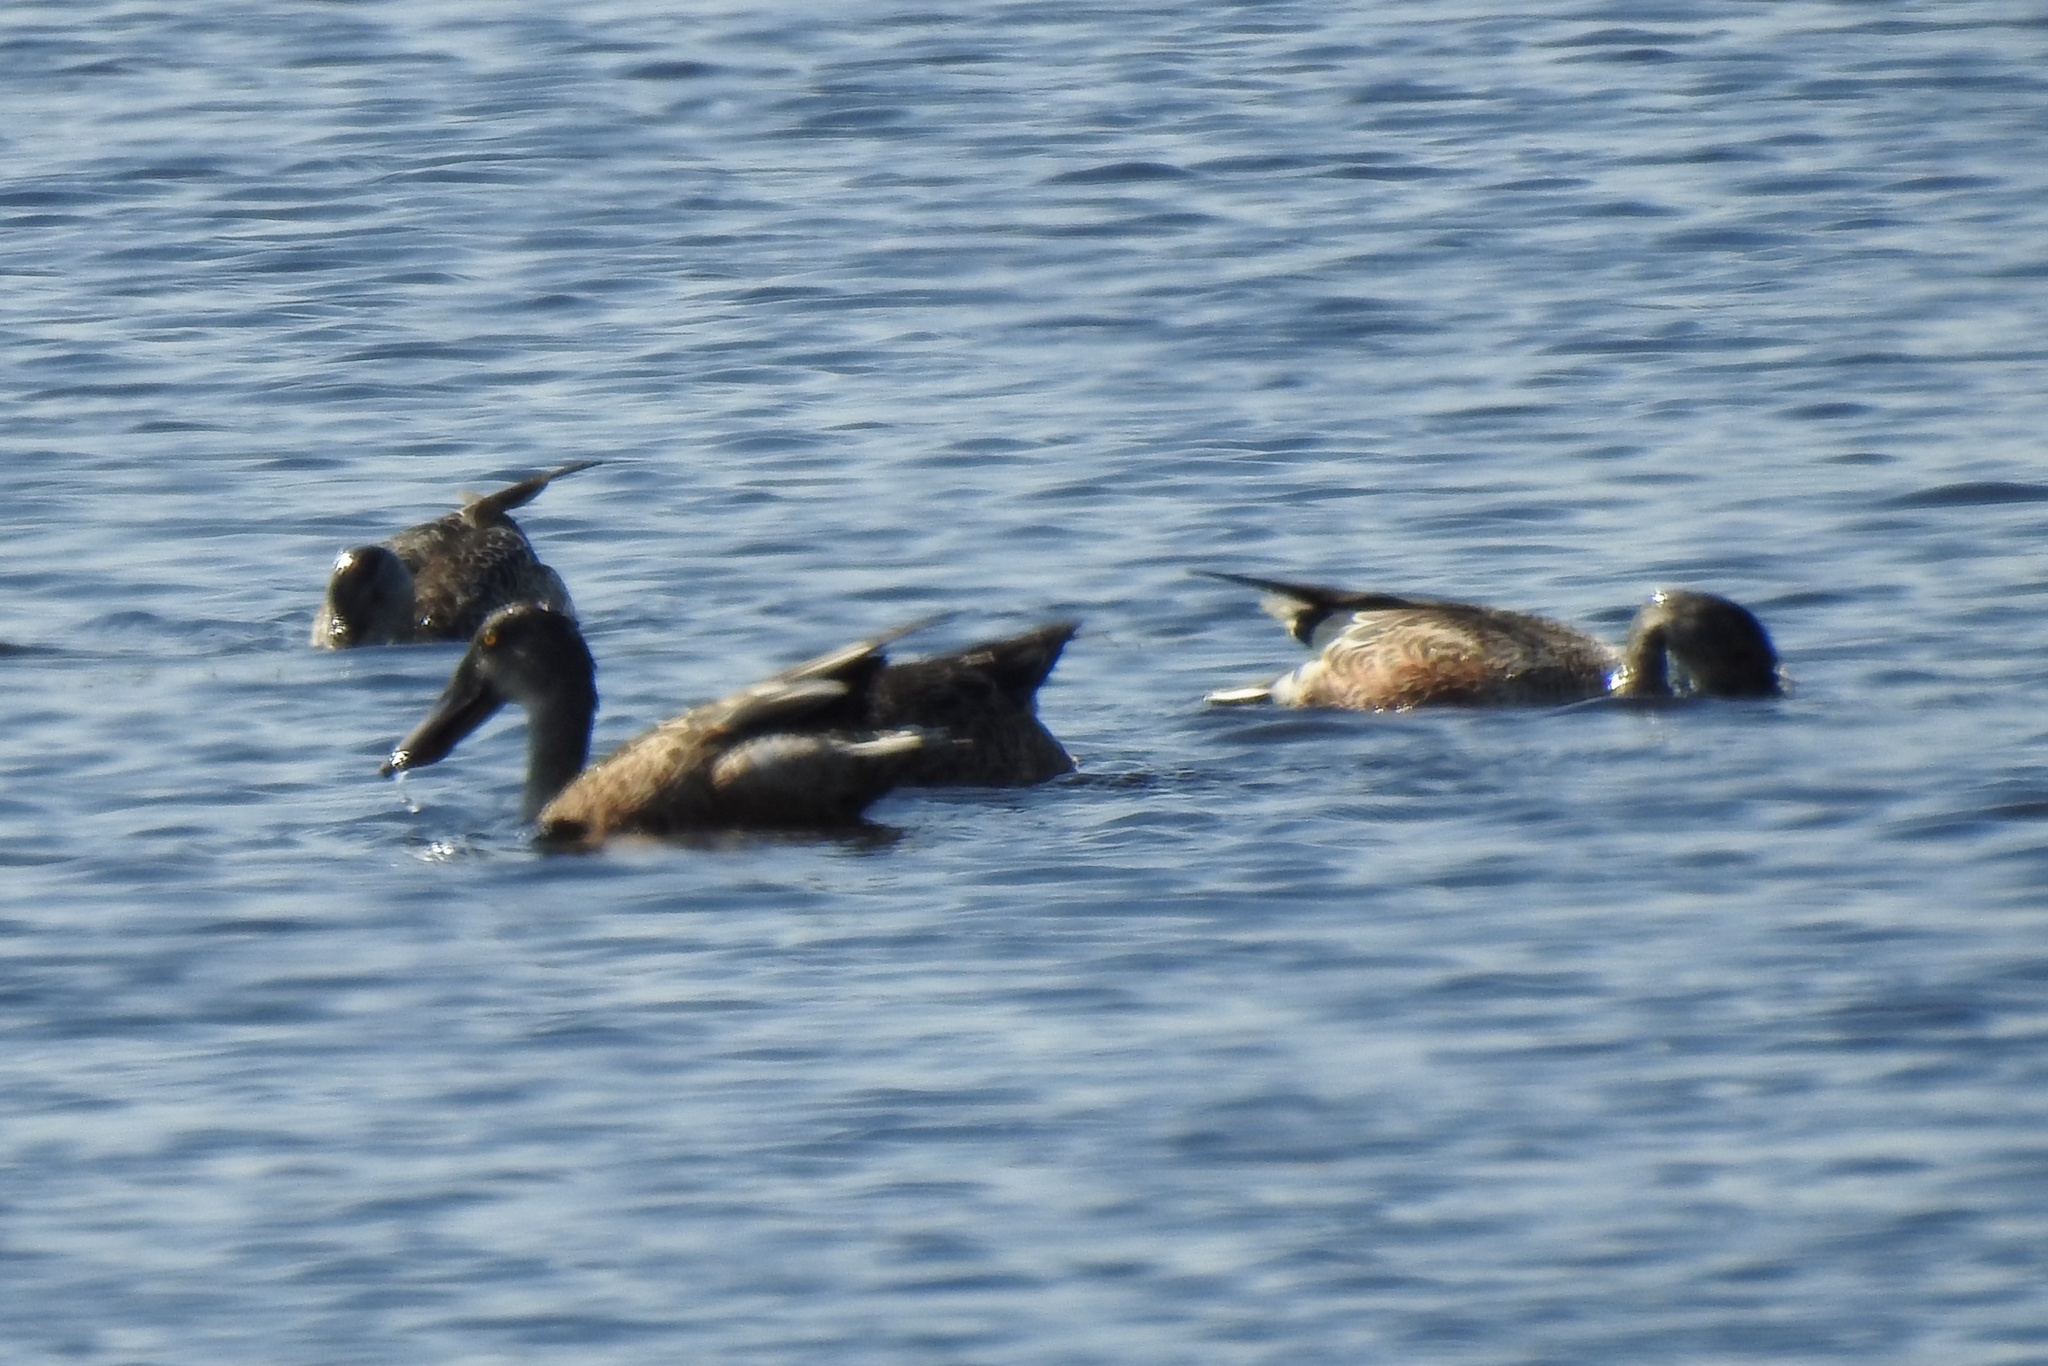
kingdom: Animalia
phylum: Chordata
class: Aves
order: Anseriformes
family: Anatidae
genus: Spatula
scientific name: Spatula clypeata
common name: Northern shoveler
